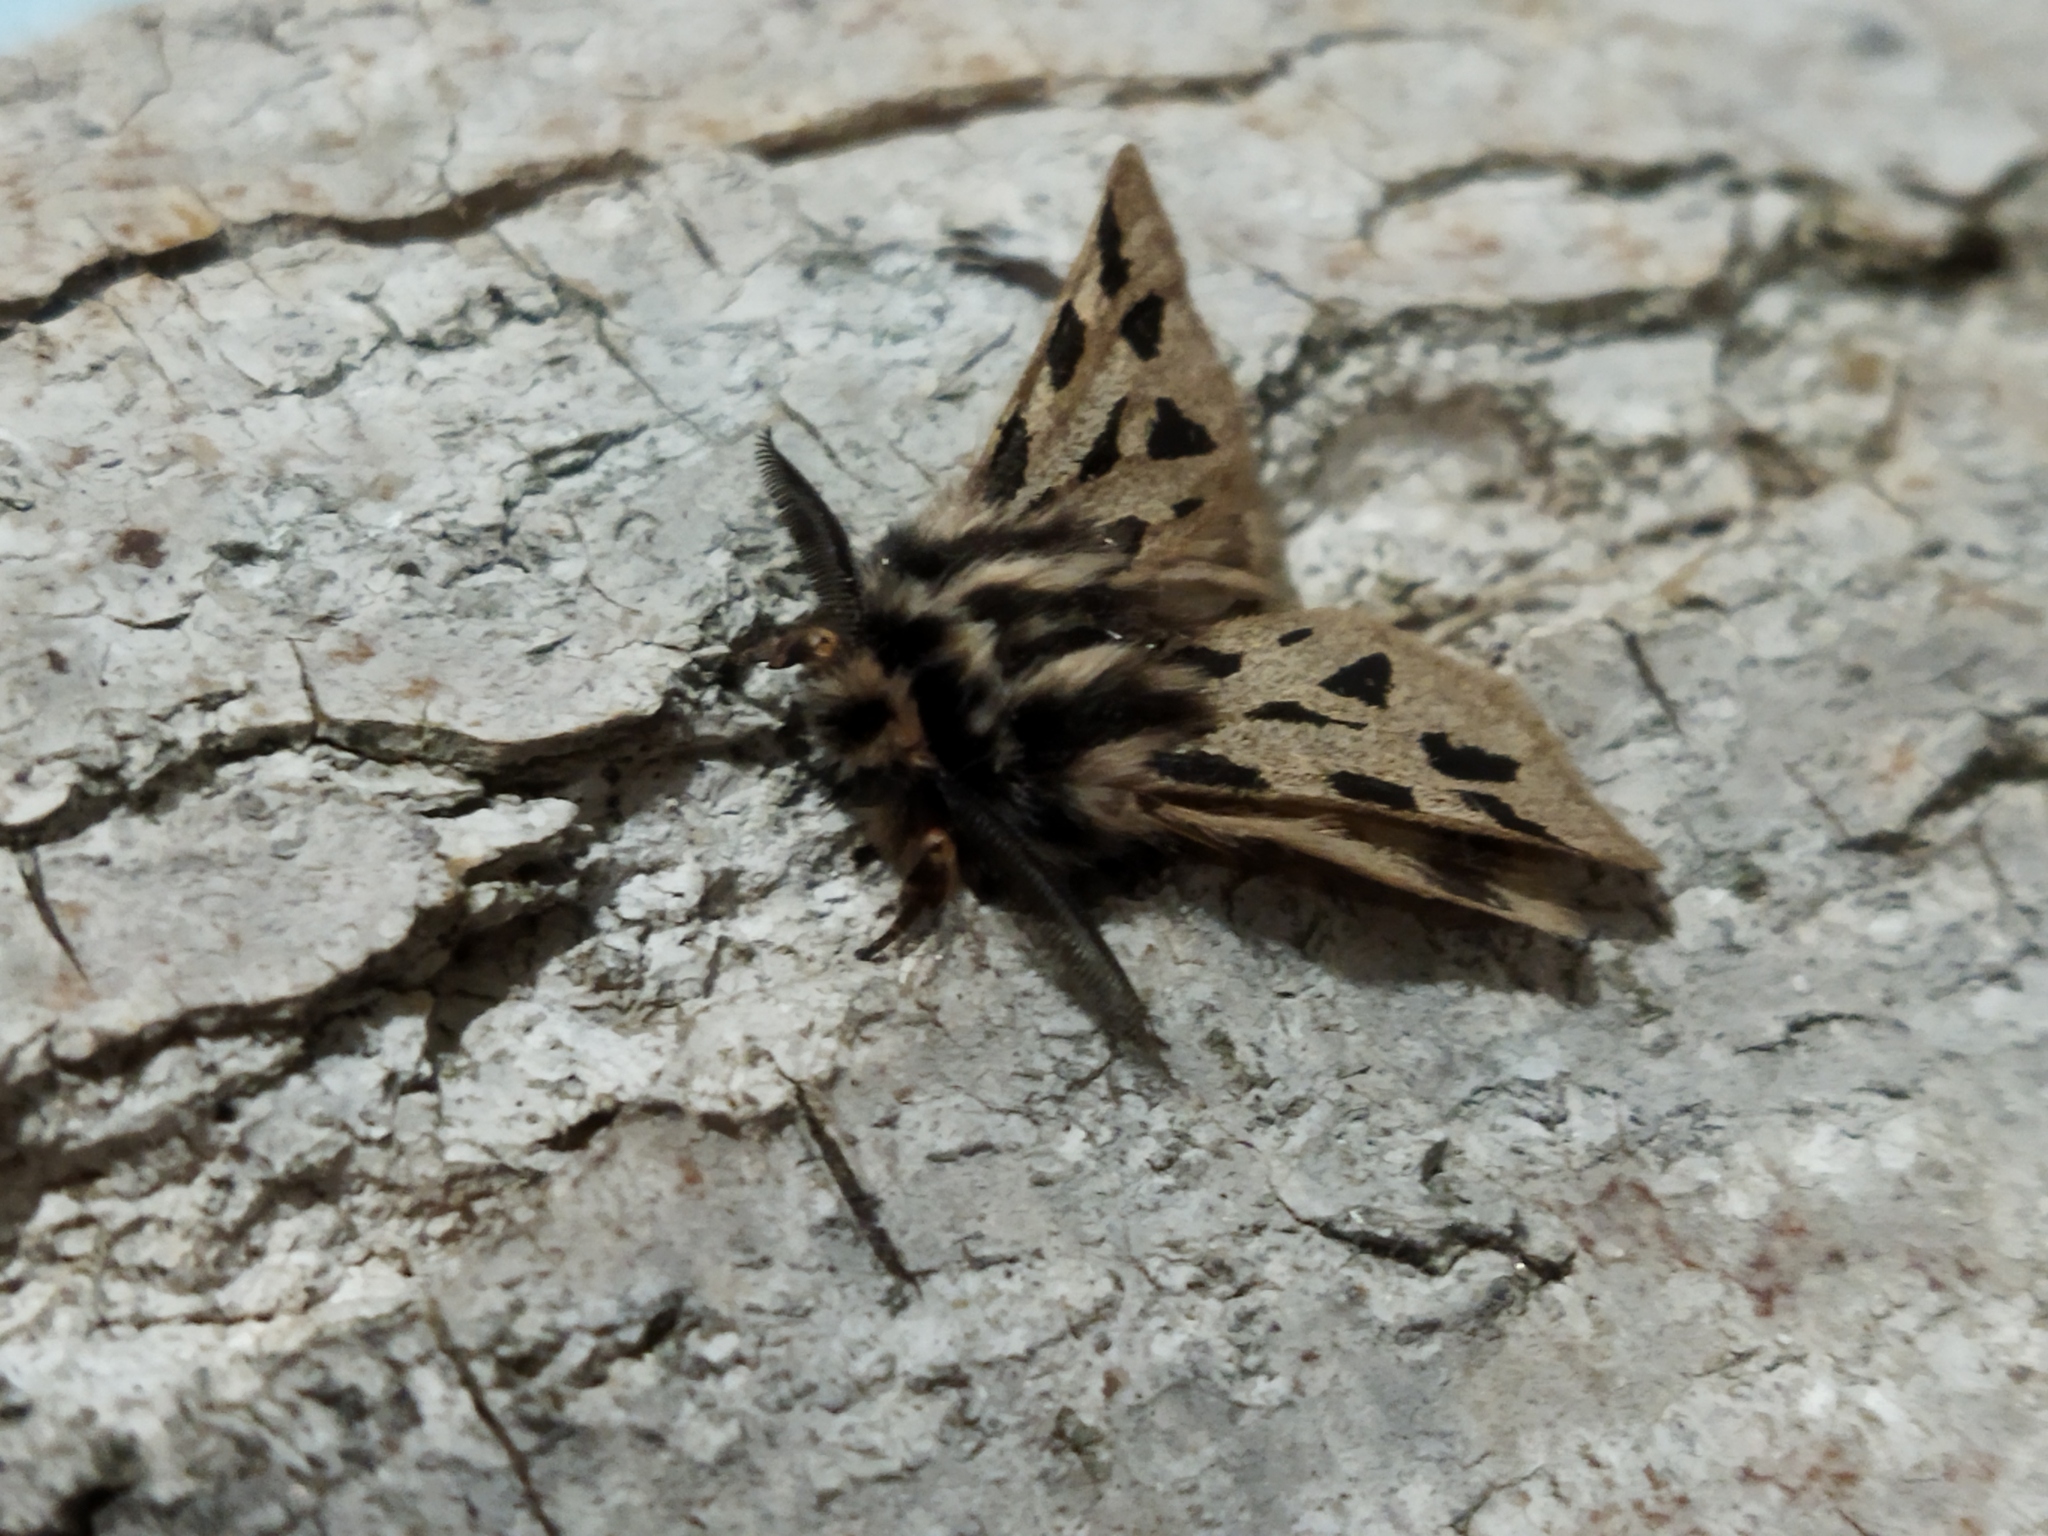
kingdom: Animalia
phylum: Arthropoda
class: Insecta
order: Lepidoptera
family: Erebidae
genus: Ocnogyna
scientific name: Ocnogyna parasita
